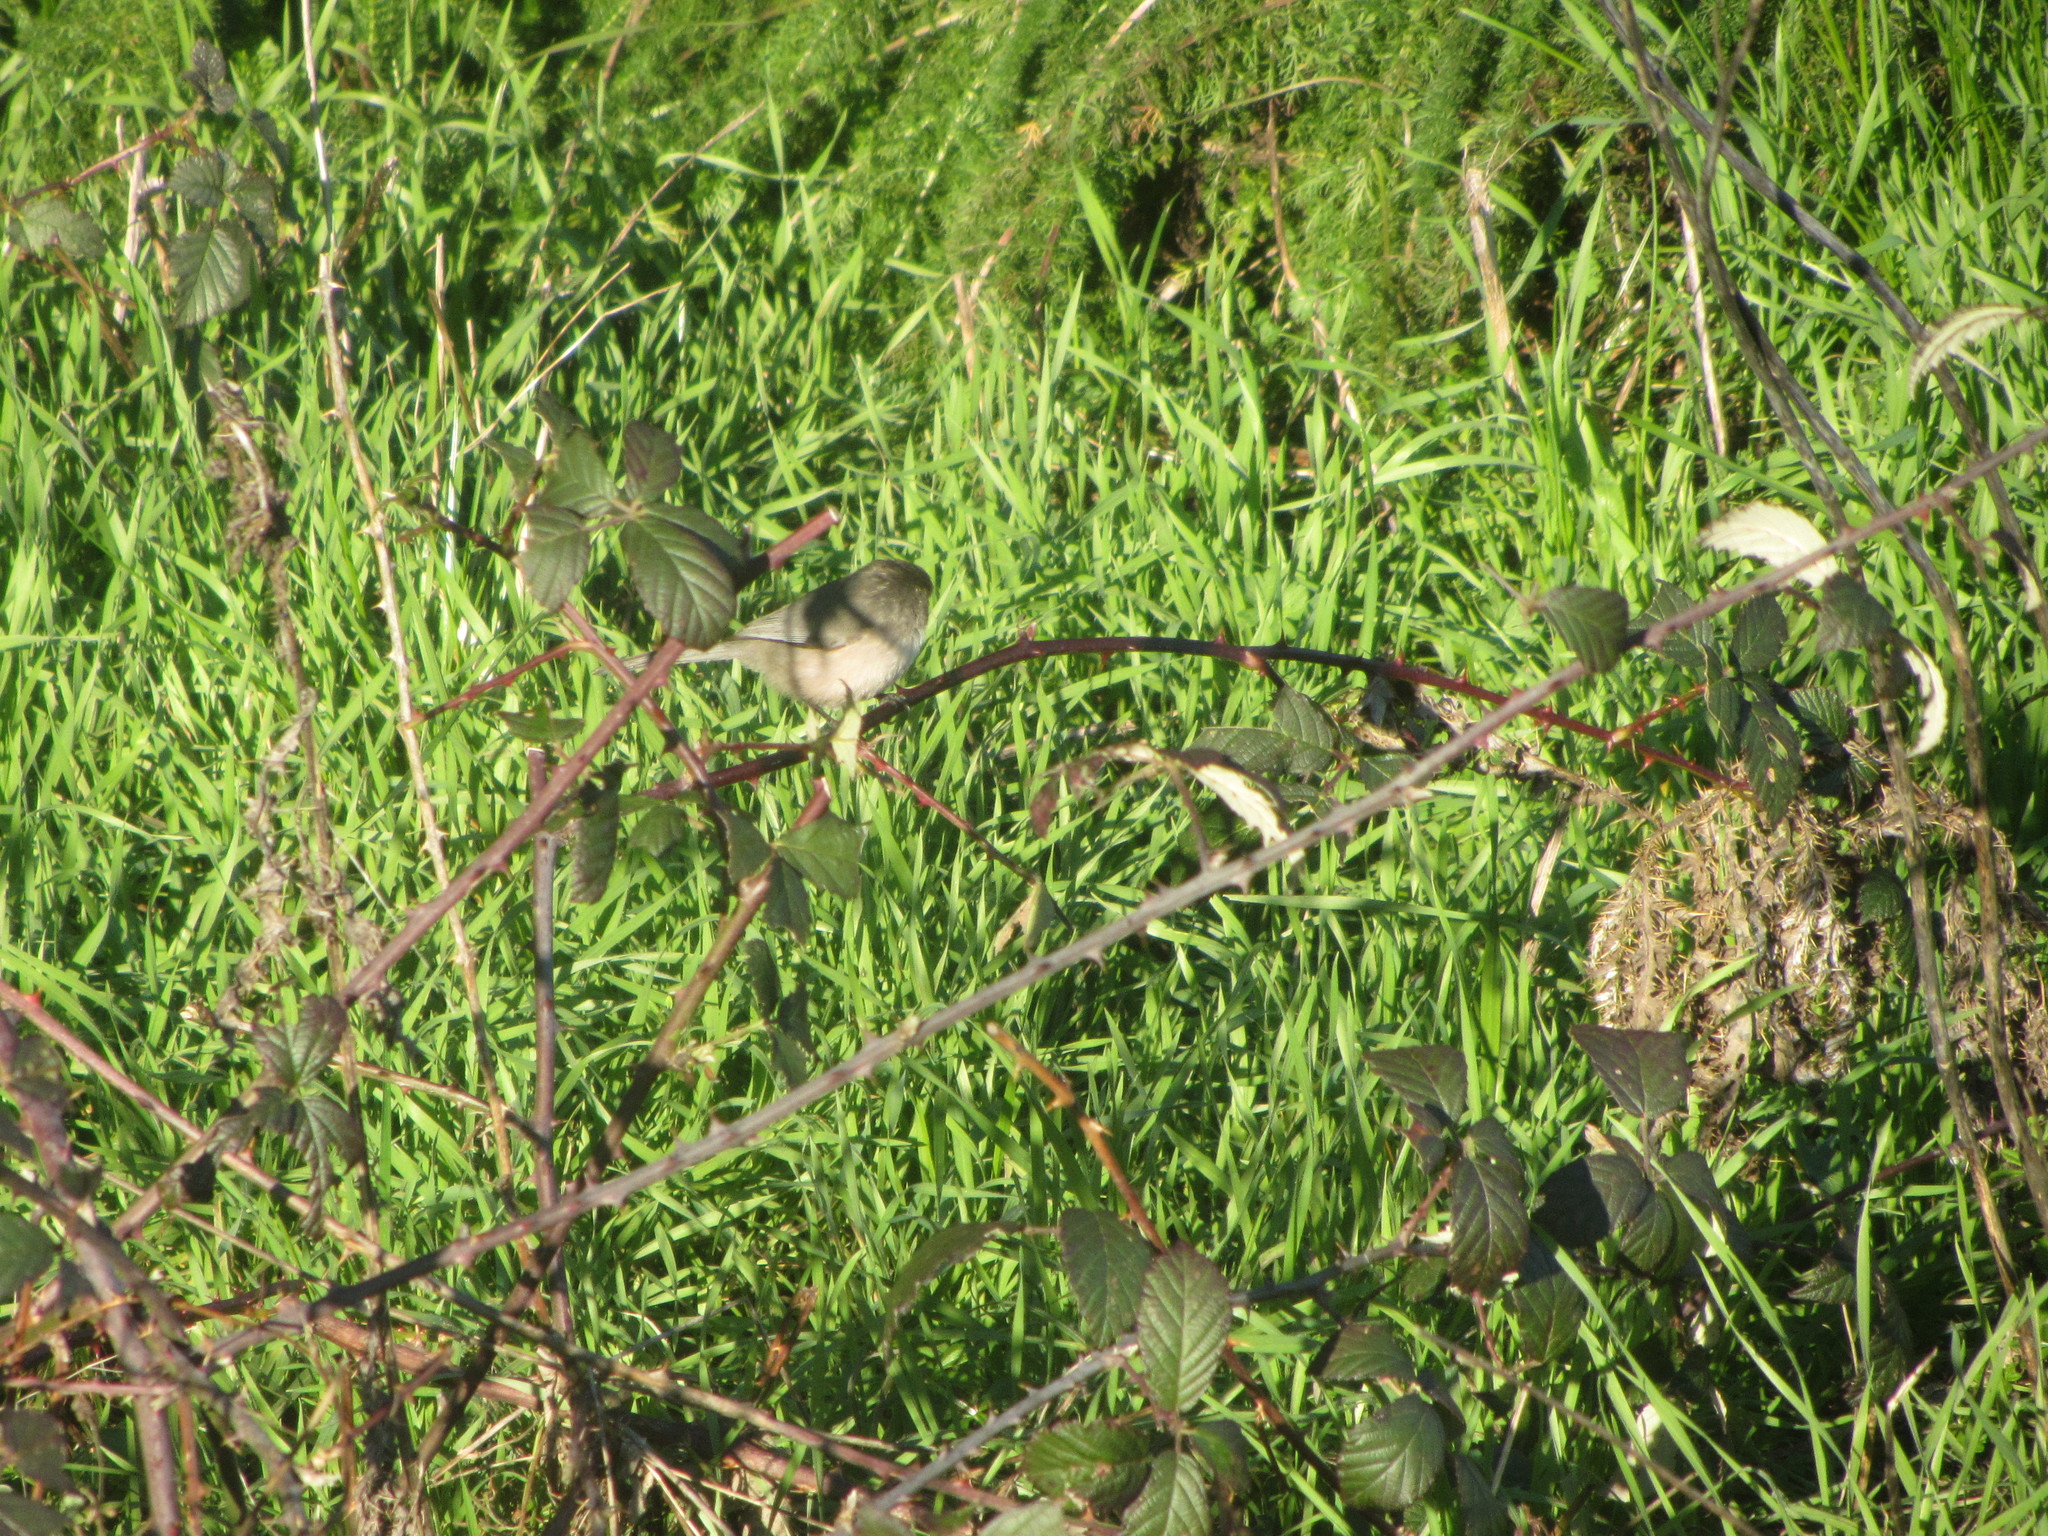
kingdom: Animalia
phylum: Chordata
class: Aves
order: Passeriformes
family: Aegithalidae
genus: Psaltriparus
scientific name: Psaltriparus minimus
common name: American bushtit
